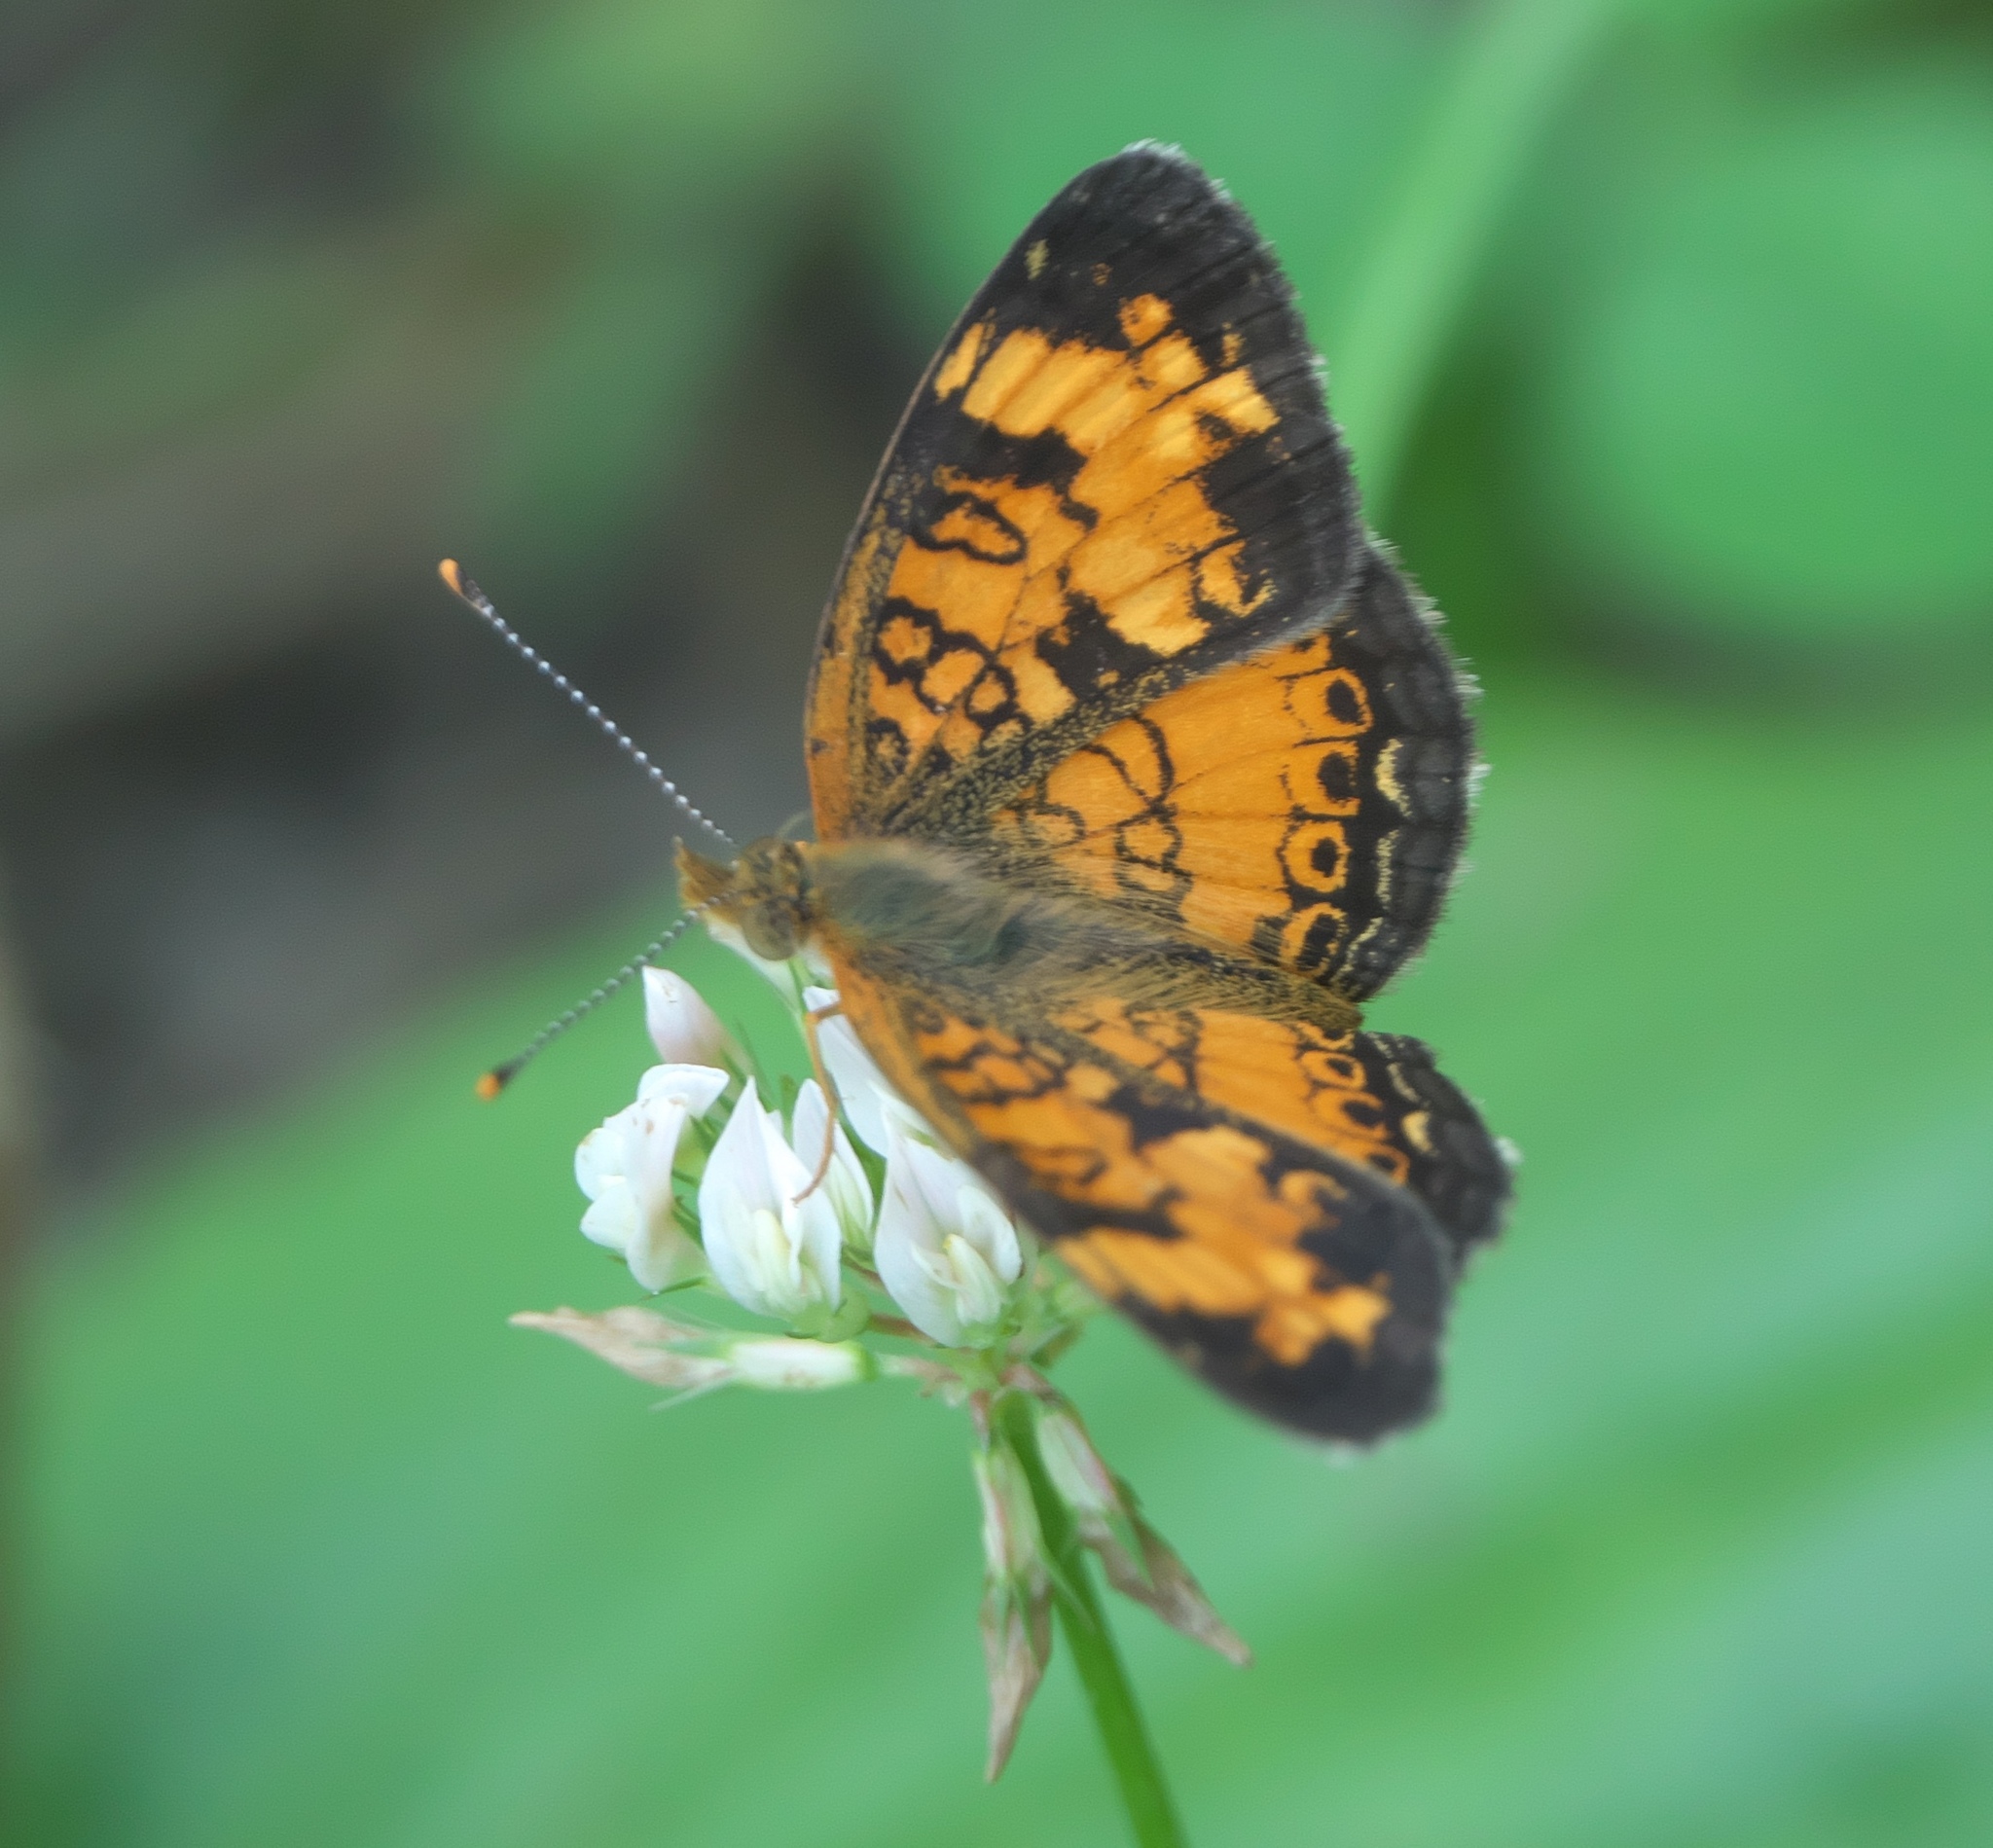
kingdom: Animalia
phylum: Arthropoda
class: Insecta
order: Lepidoptera
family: Nymphalidae
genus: Phyciodes
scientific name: Phyciodes tharos
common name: Pearl crescent
